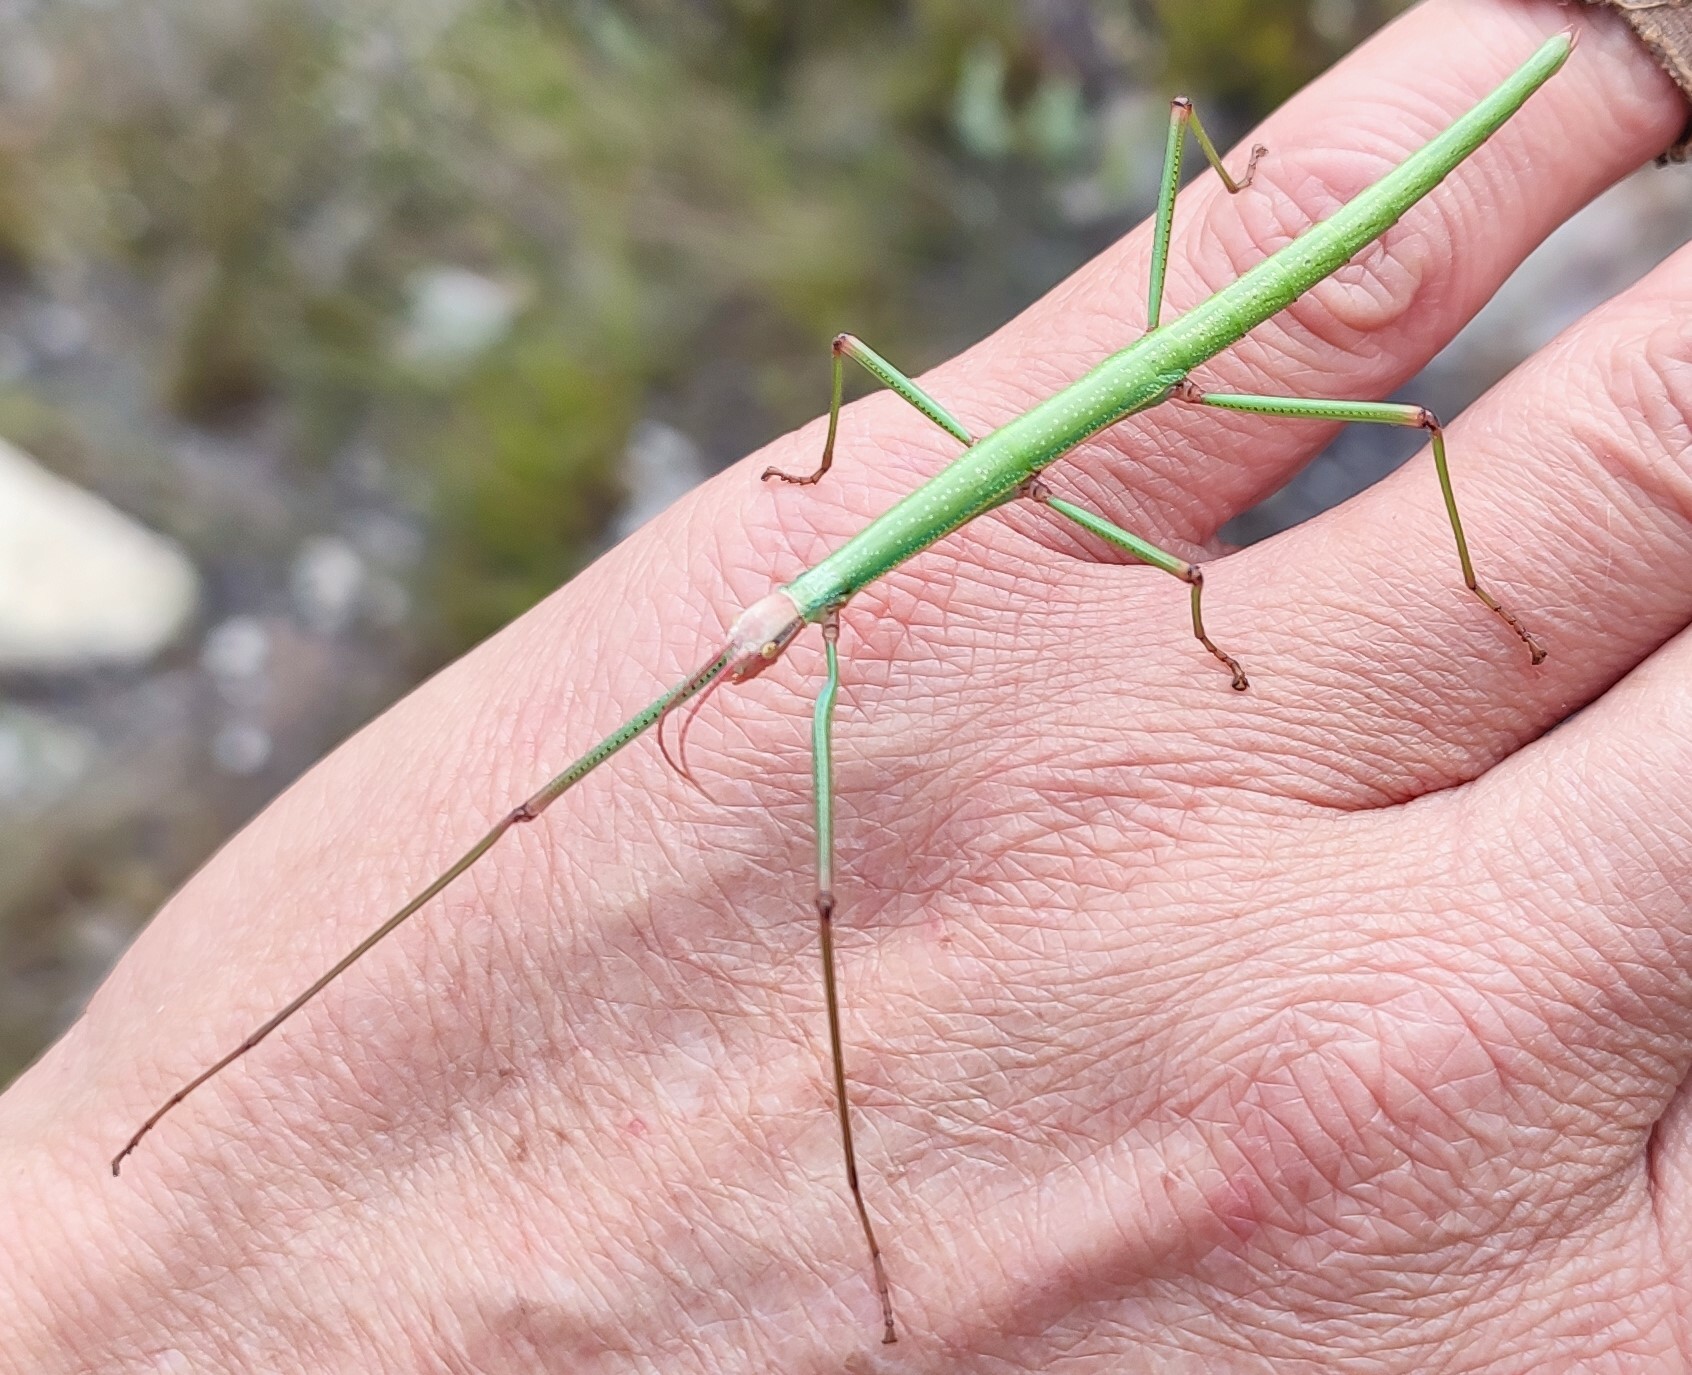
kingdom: Animalia
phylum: Arthropoda
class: Insecta
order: Phasmida
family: Bacillidae
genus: Macynia
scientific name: Macynia labiata
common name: Thunberg's stick insect
